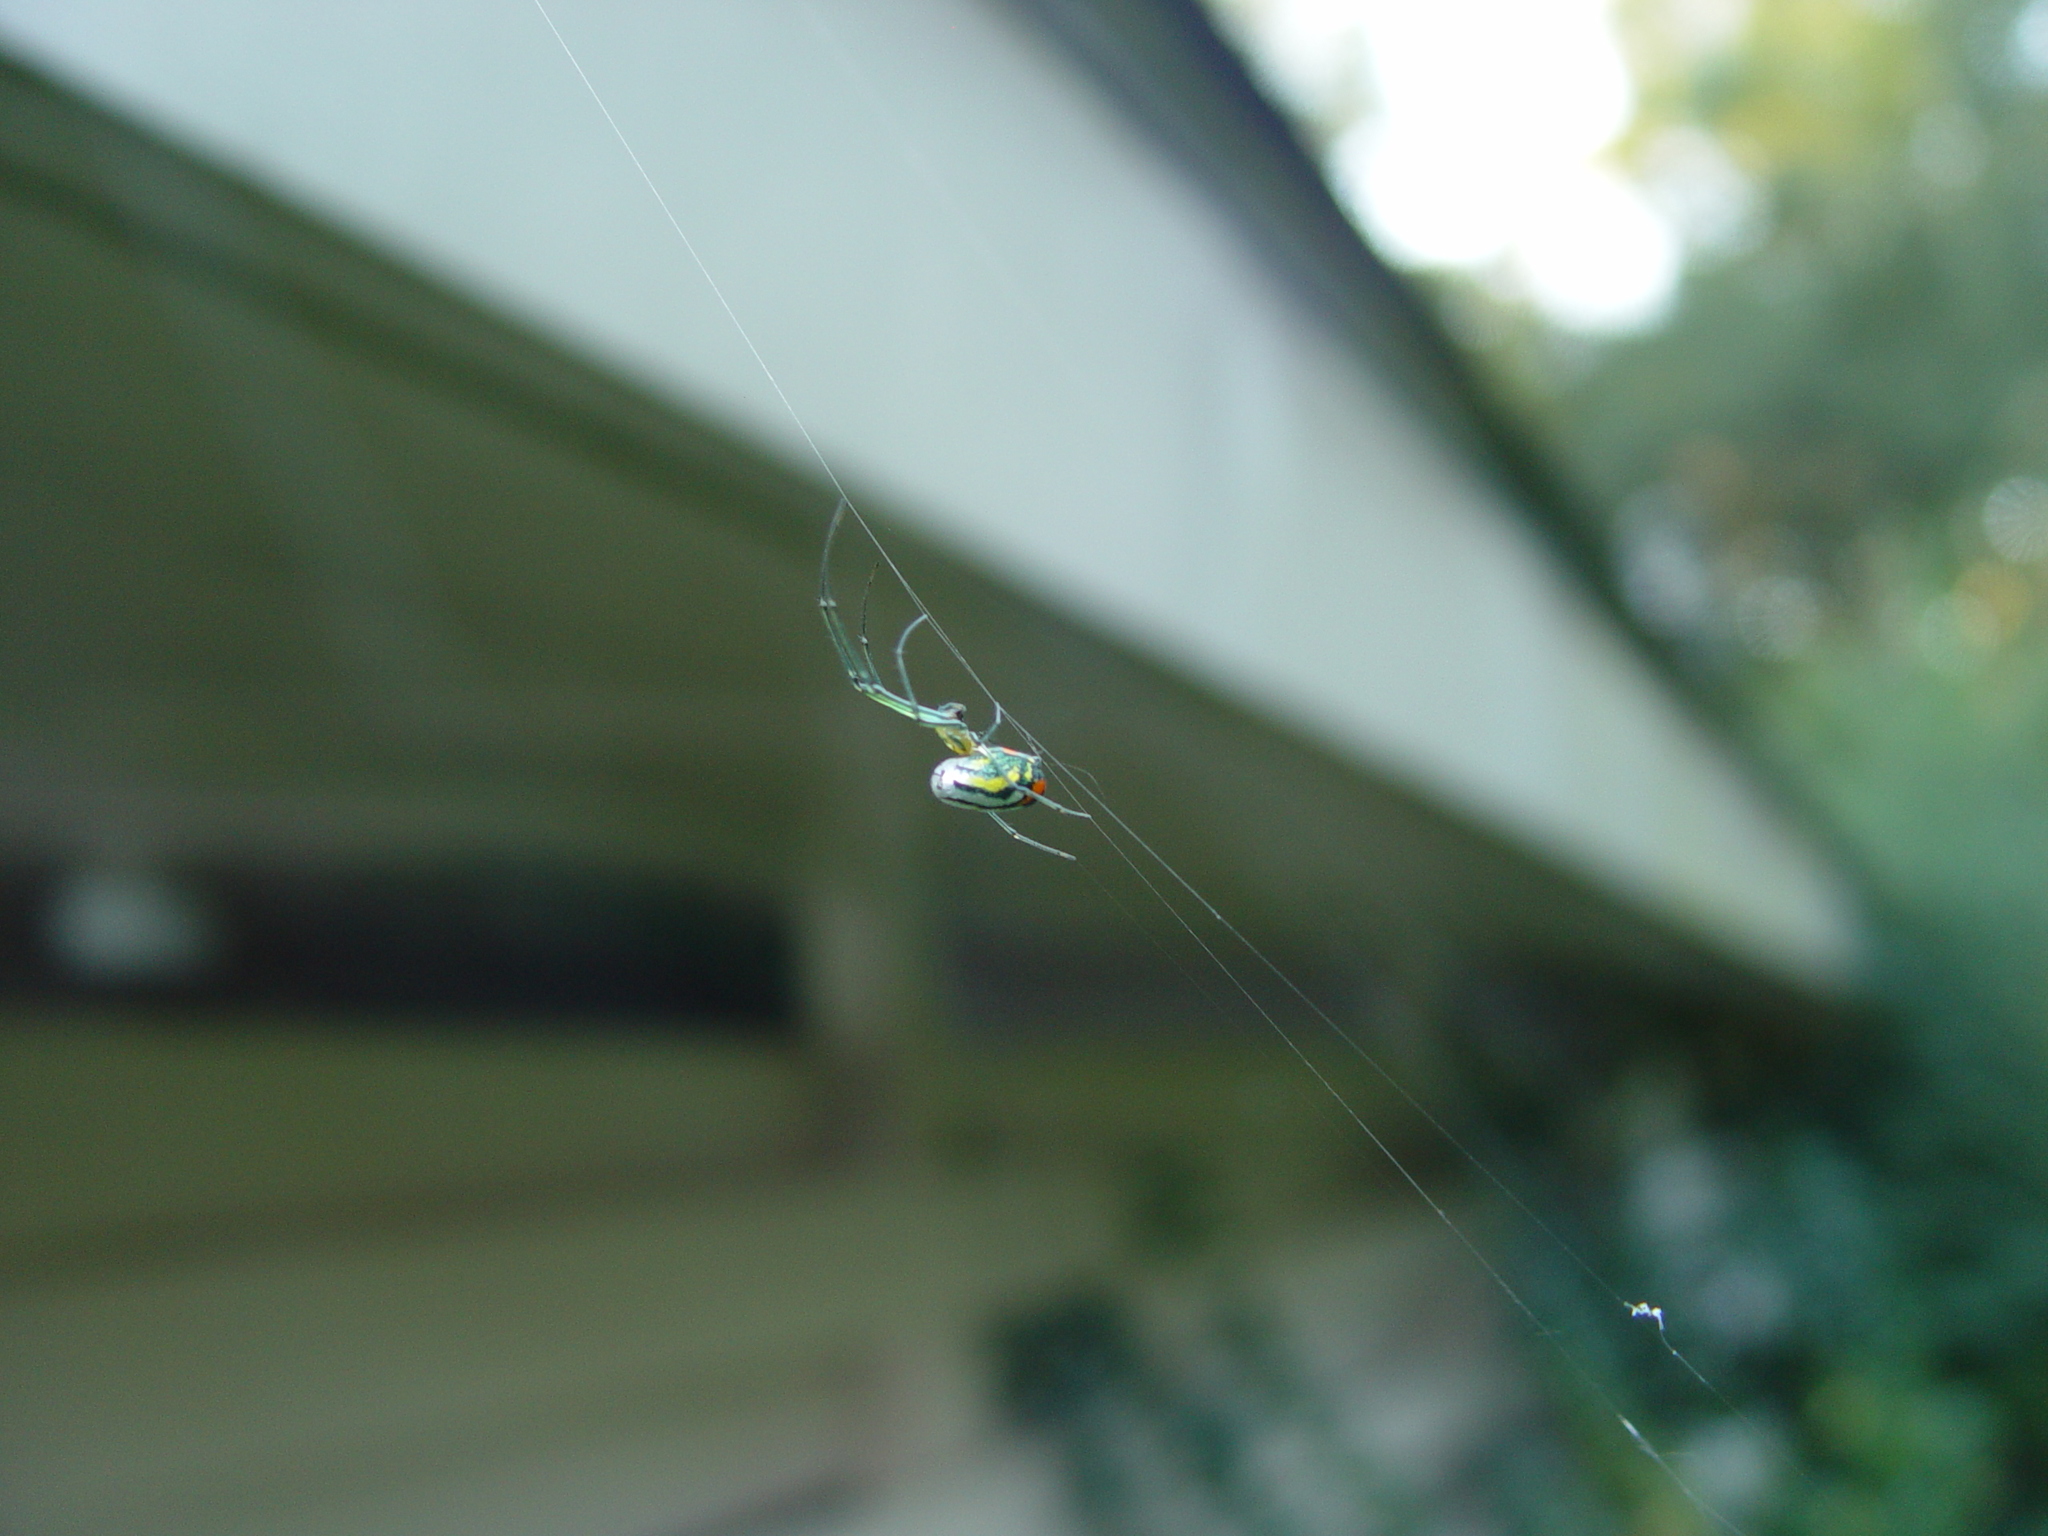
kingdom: Animalia
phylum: Arthropoda
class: Arachnida
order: Araneae
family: Tetragnathidae
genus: Leucauge
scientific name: Leucauge argyrobapta
